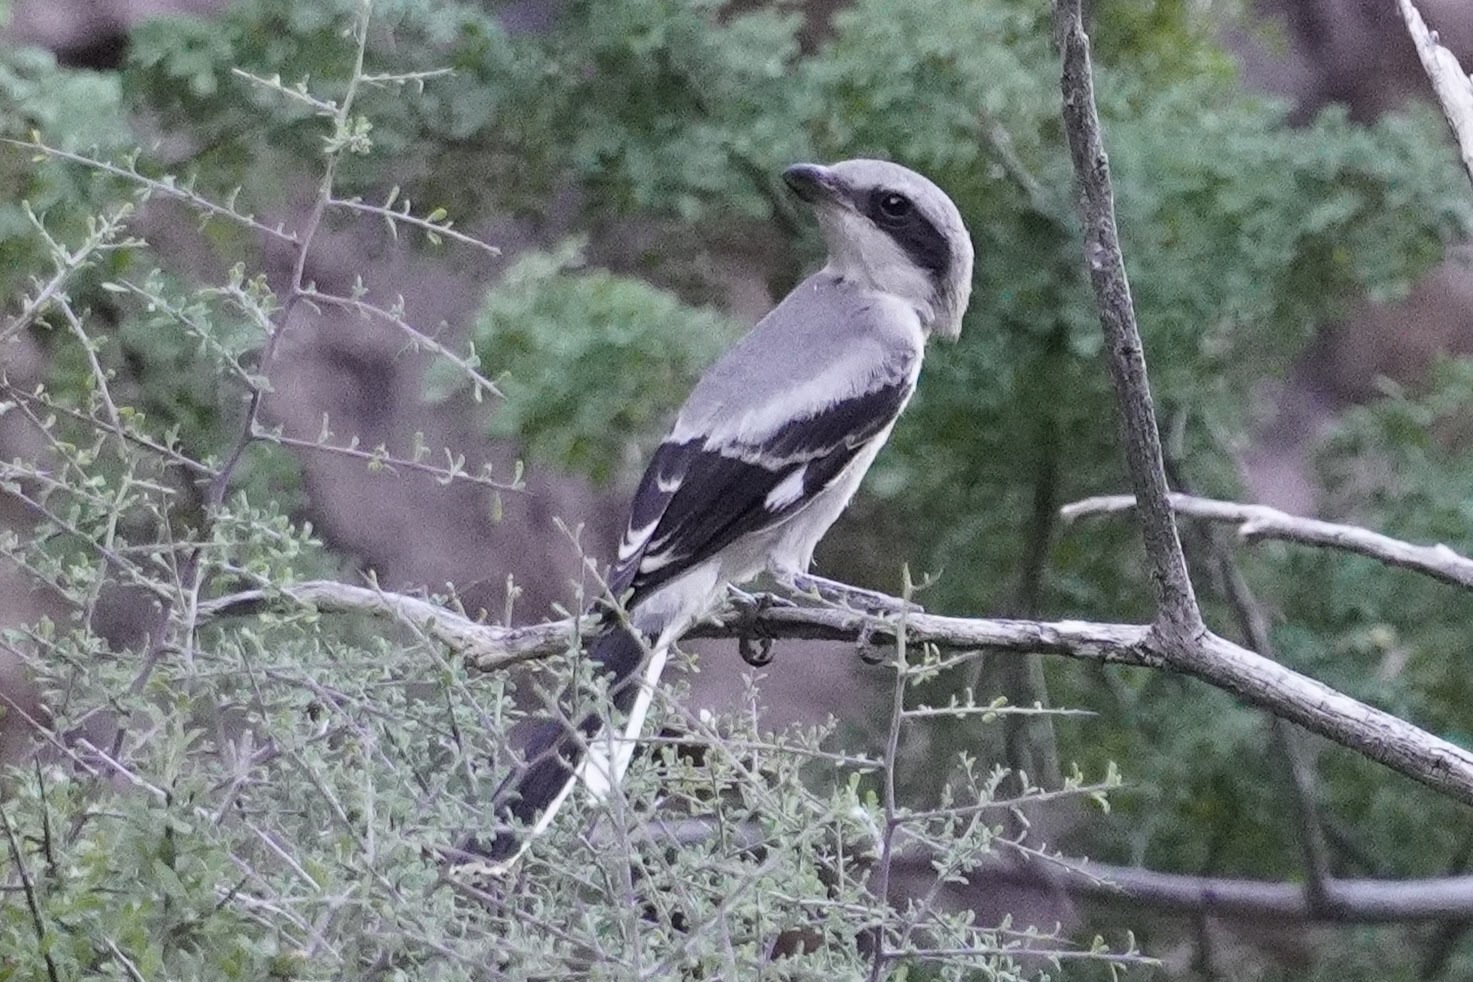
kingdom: Animalia
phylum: Chordata
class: Aves
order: Passeriformes
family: Laniidae
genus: Lanius
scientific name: Lanius ludovicianus
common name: Loggerhead shrike
